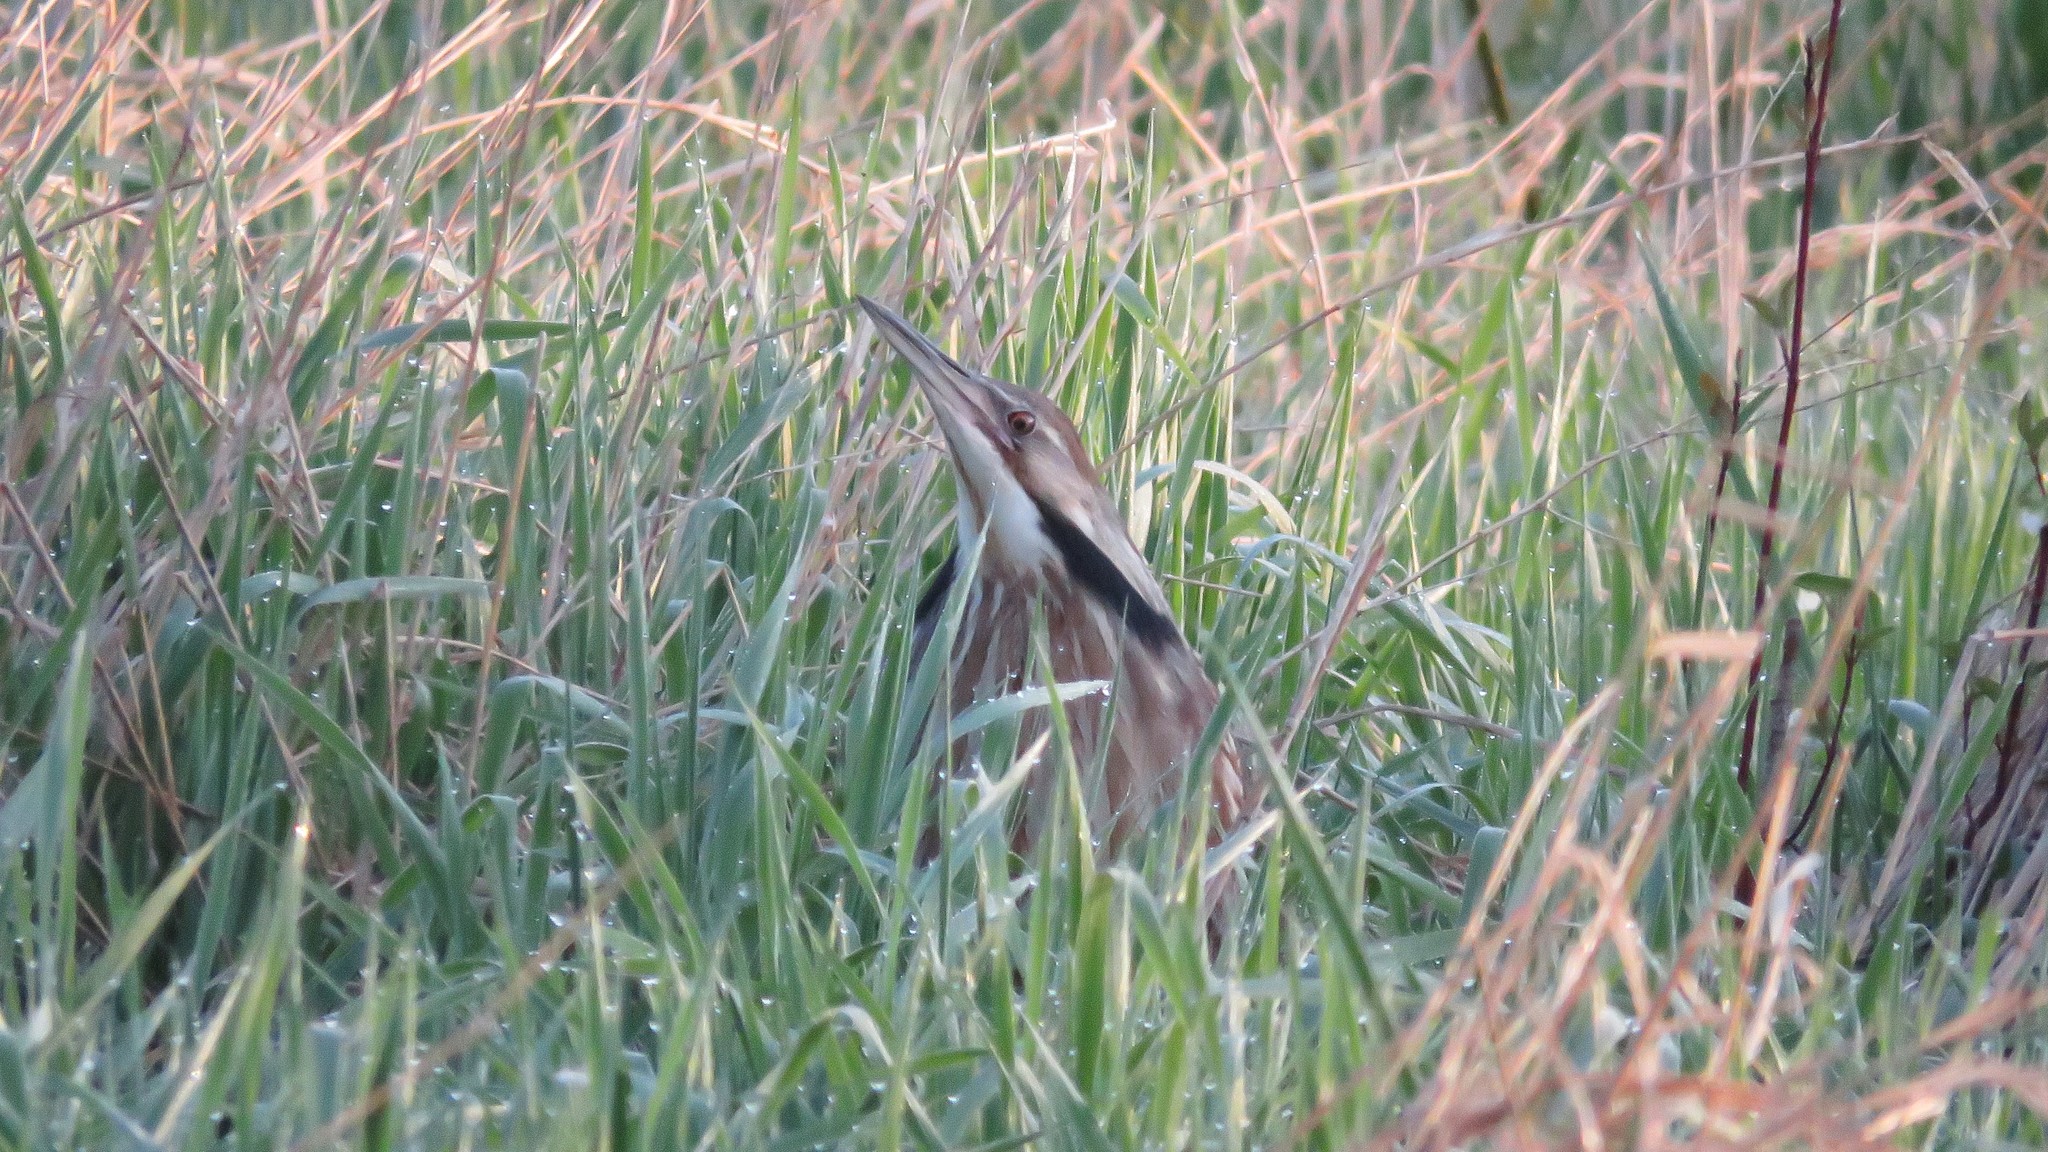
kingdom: Animalia
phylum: Chordata
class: Aves
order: Pelecaniformes
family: Ardeidae
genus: Botaurus
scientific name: Botaurus lentiginosus
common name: American bittern
